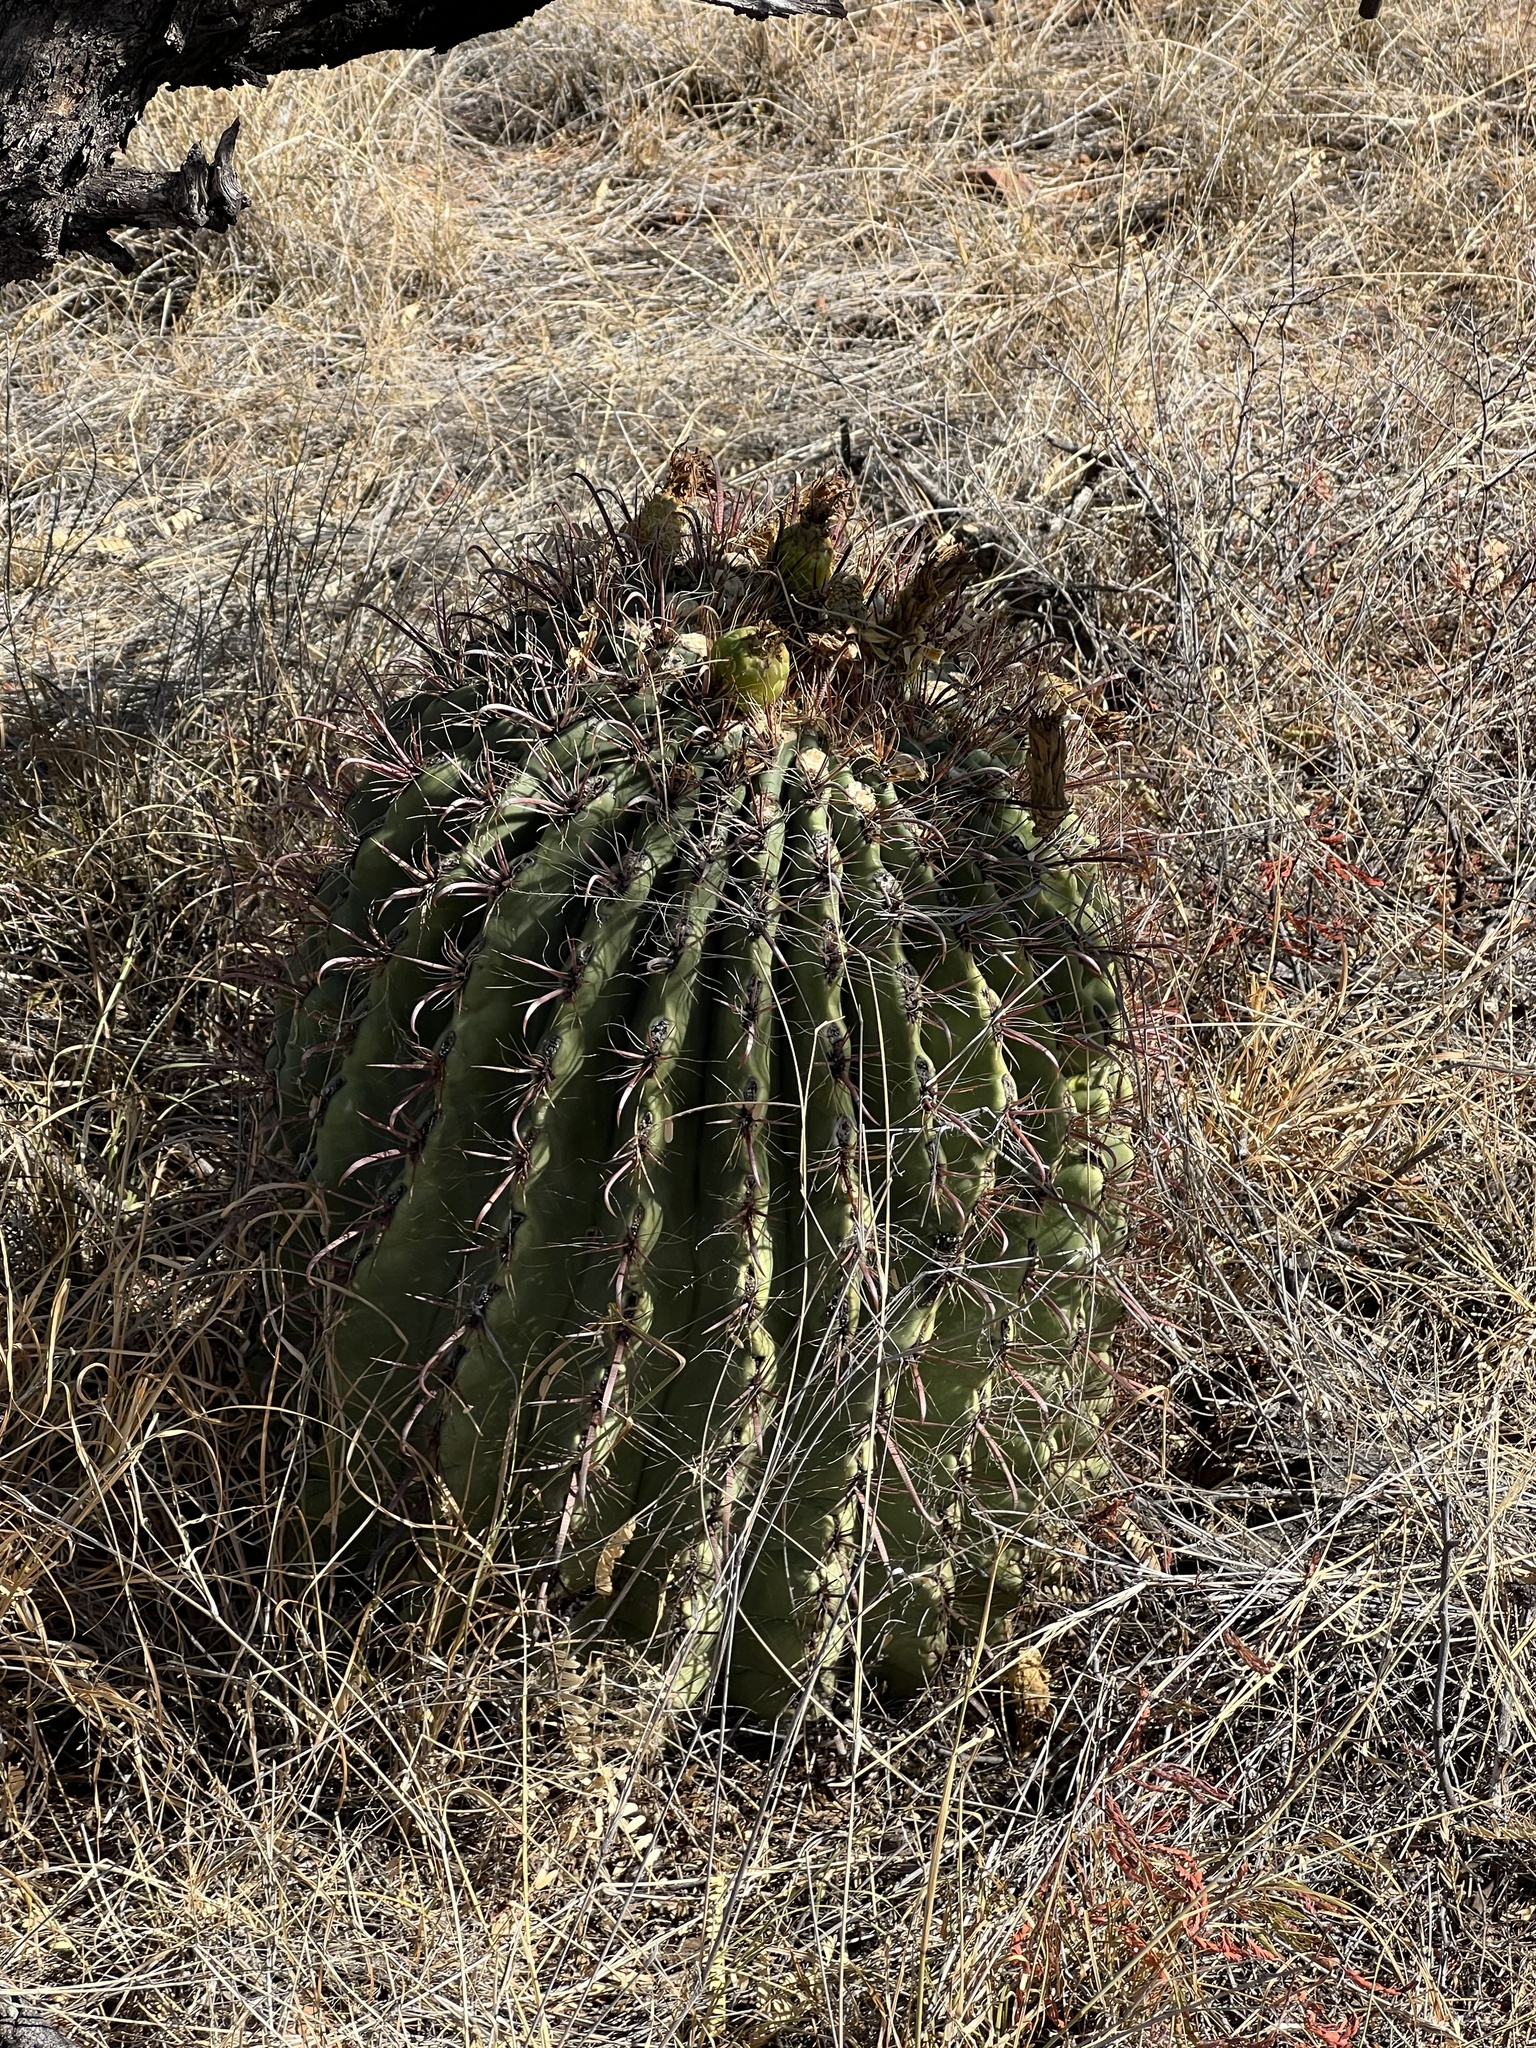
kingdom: Plantae
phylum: Tracheophyta
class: Magnoliopsida
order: Caryophyllales
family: Cactaceae
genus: Ferocactus
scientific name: Ferocactus wislizeni
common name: Candy barrel cactus
